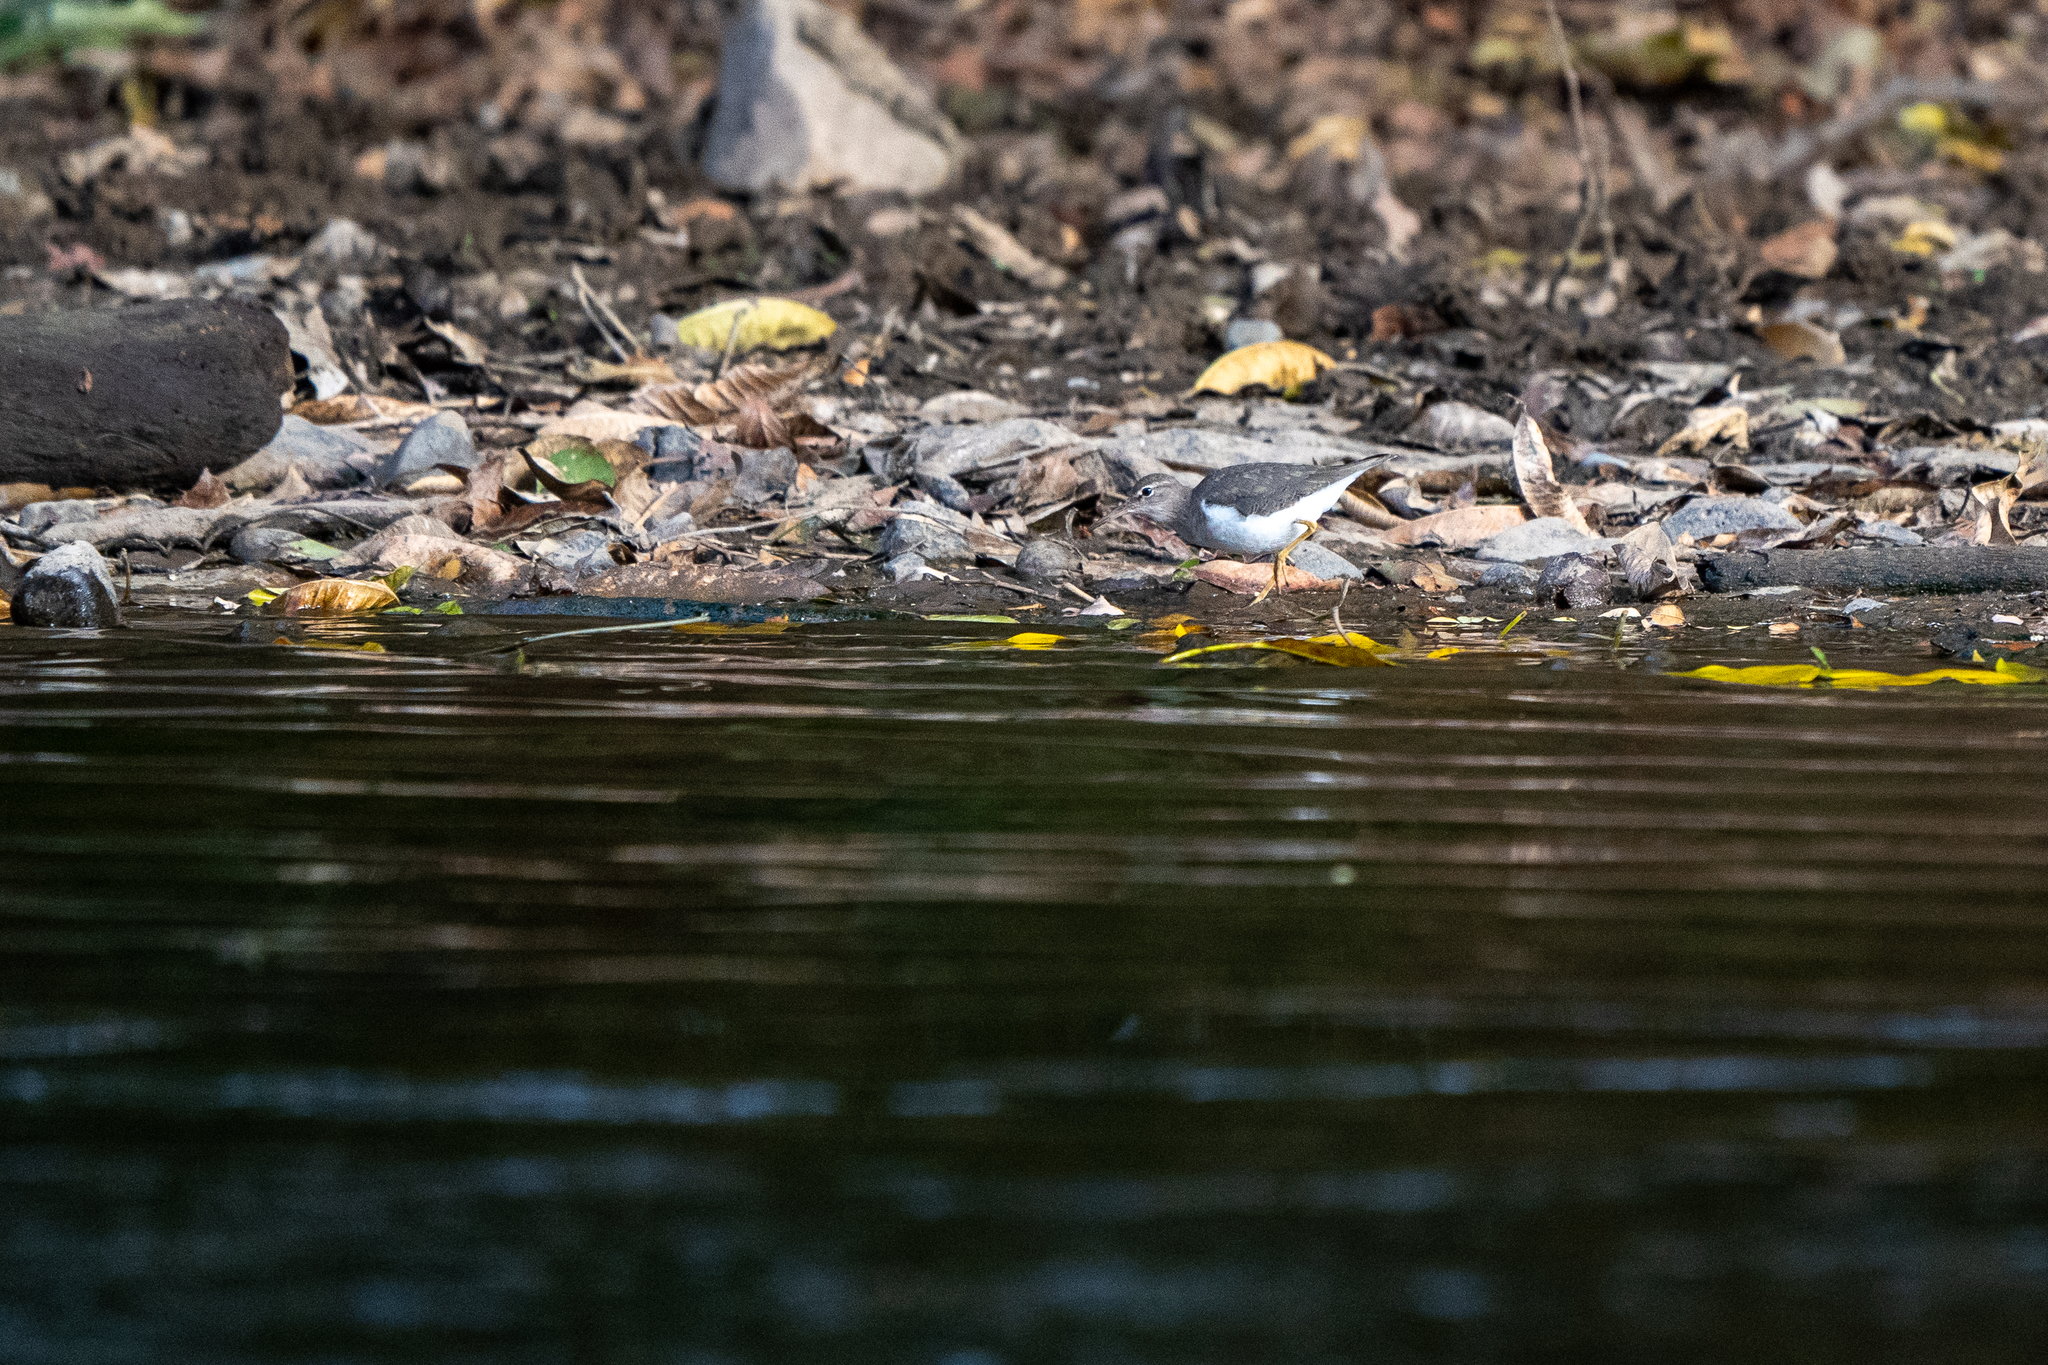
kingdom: Animalia
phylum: Chordata
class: Aves
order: Charadriiformes
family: Scolopacidae
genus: Actitis
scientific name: Actitis macularius
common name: Spotted sandpiper
